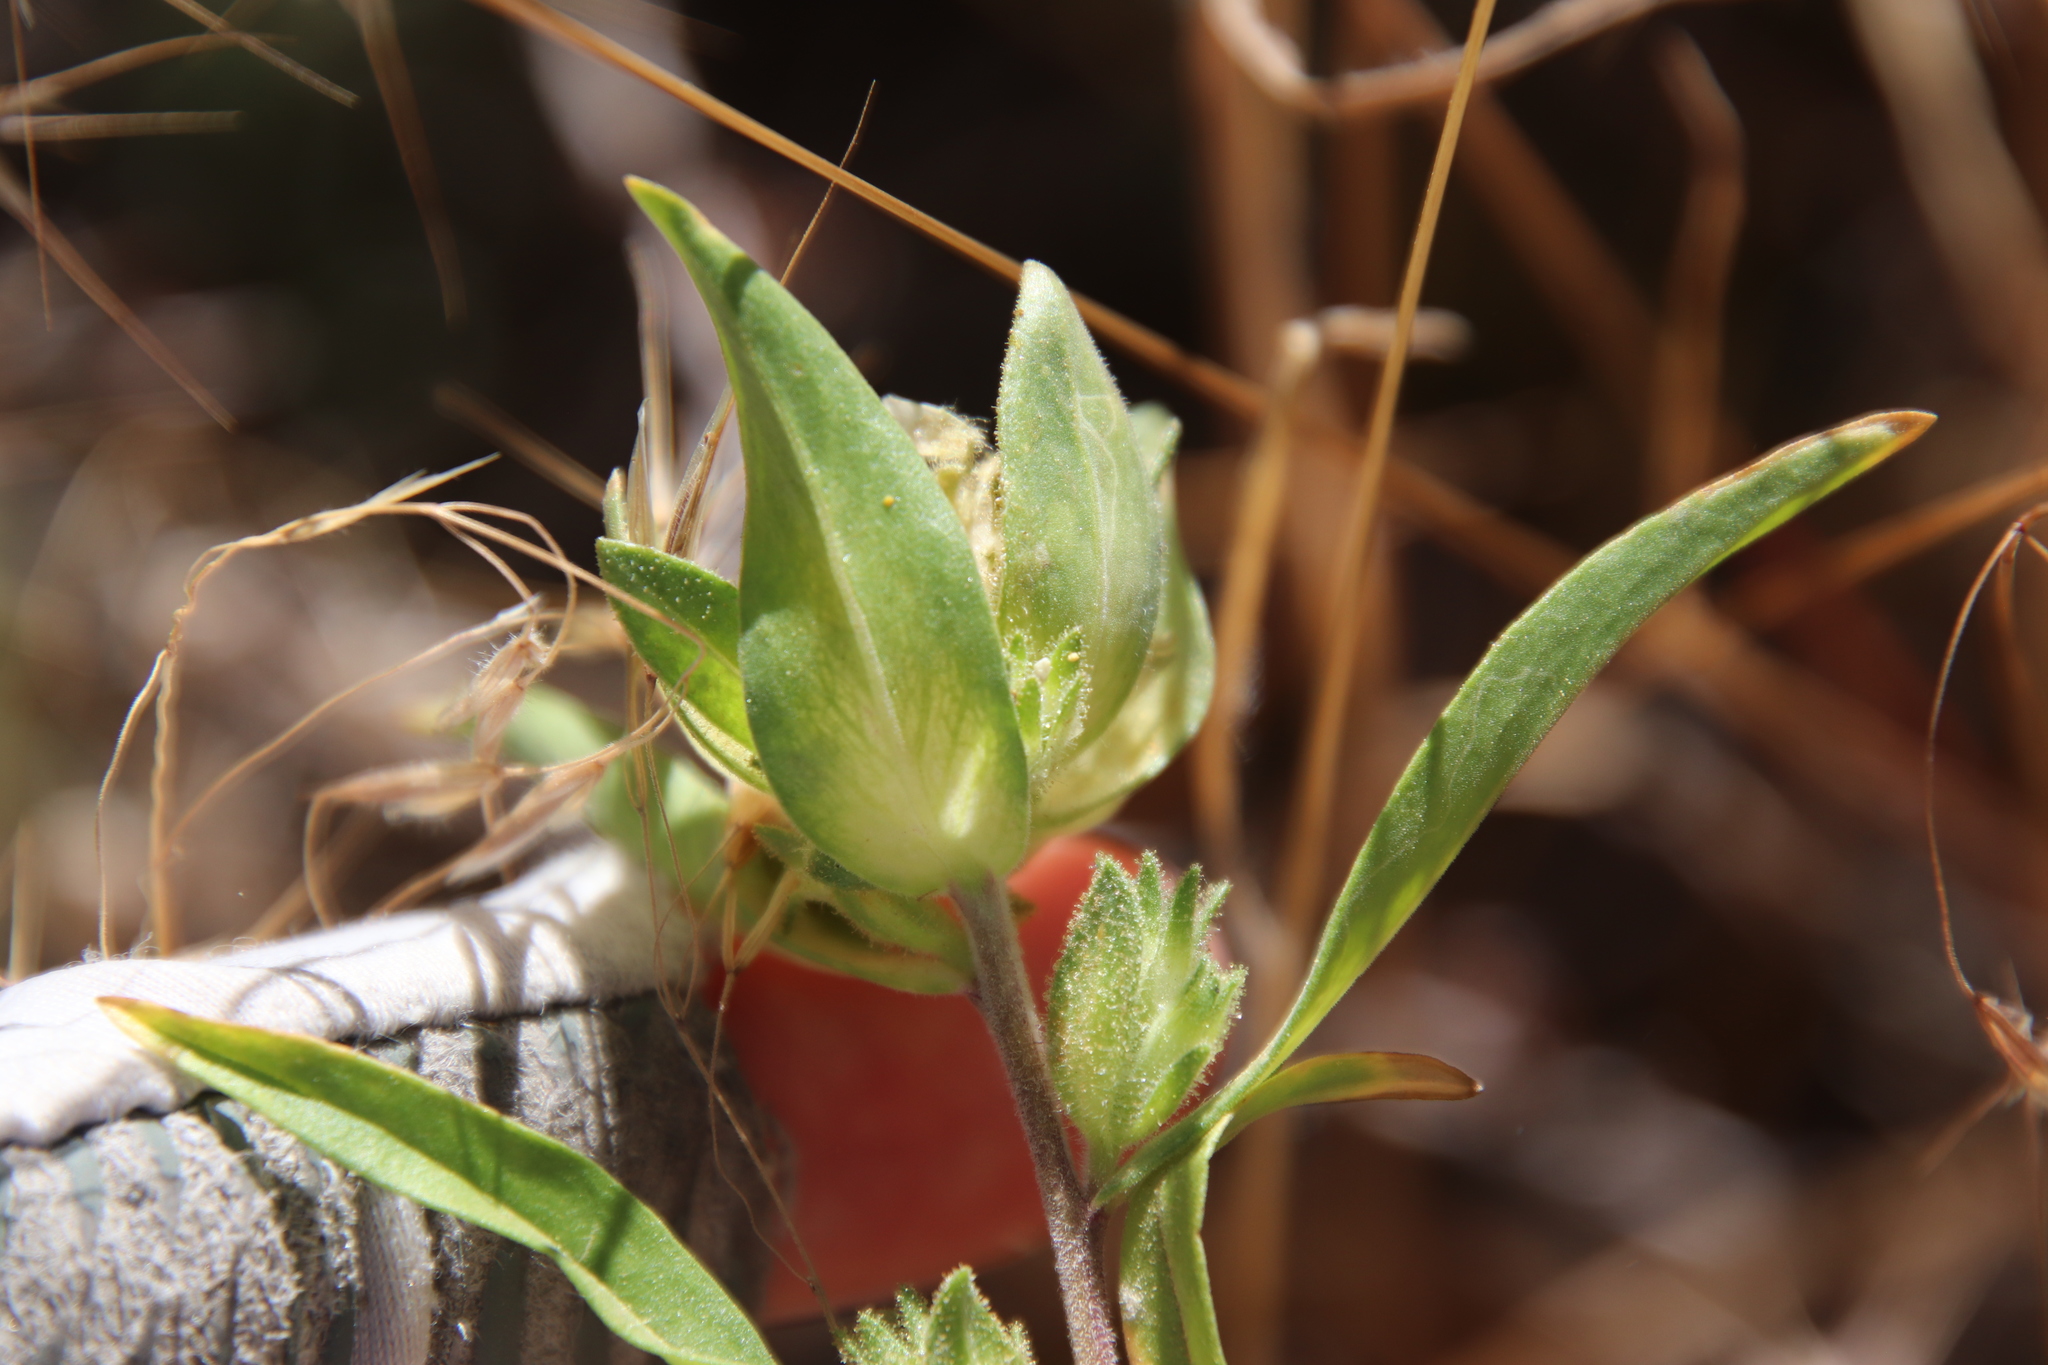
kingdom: Plantae
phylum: Tracheophyta
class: Magnoliopsida
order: Ericales
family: Polemoniaceae
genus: Collomia
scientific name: Collomia grandiflora
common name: California strawflower
